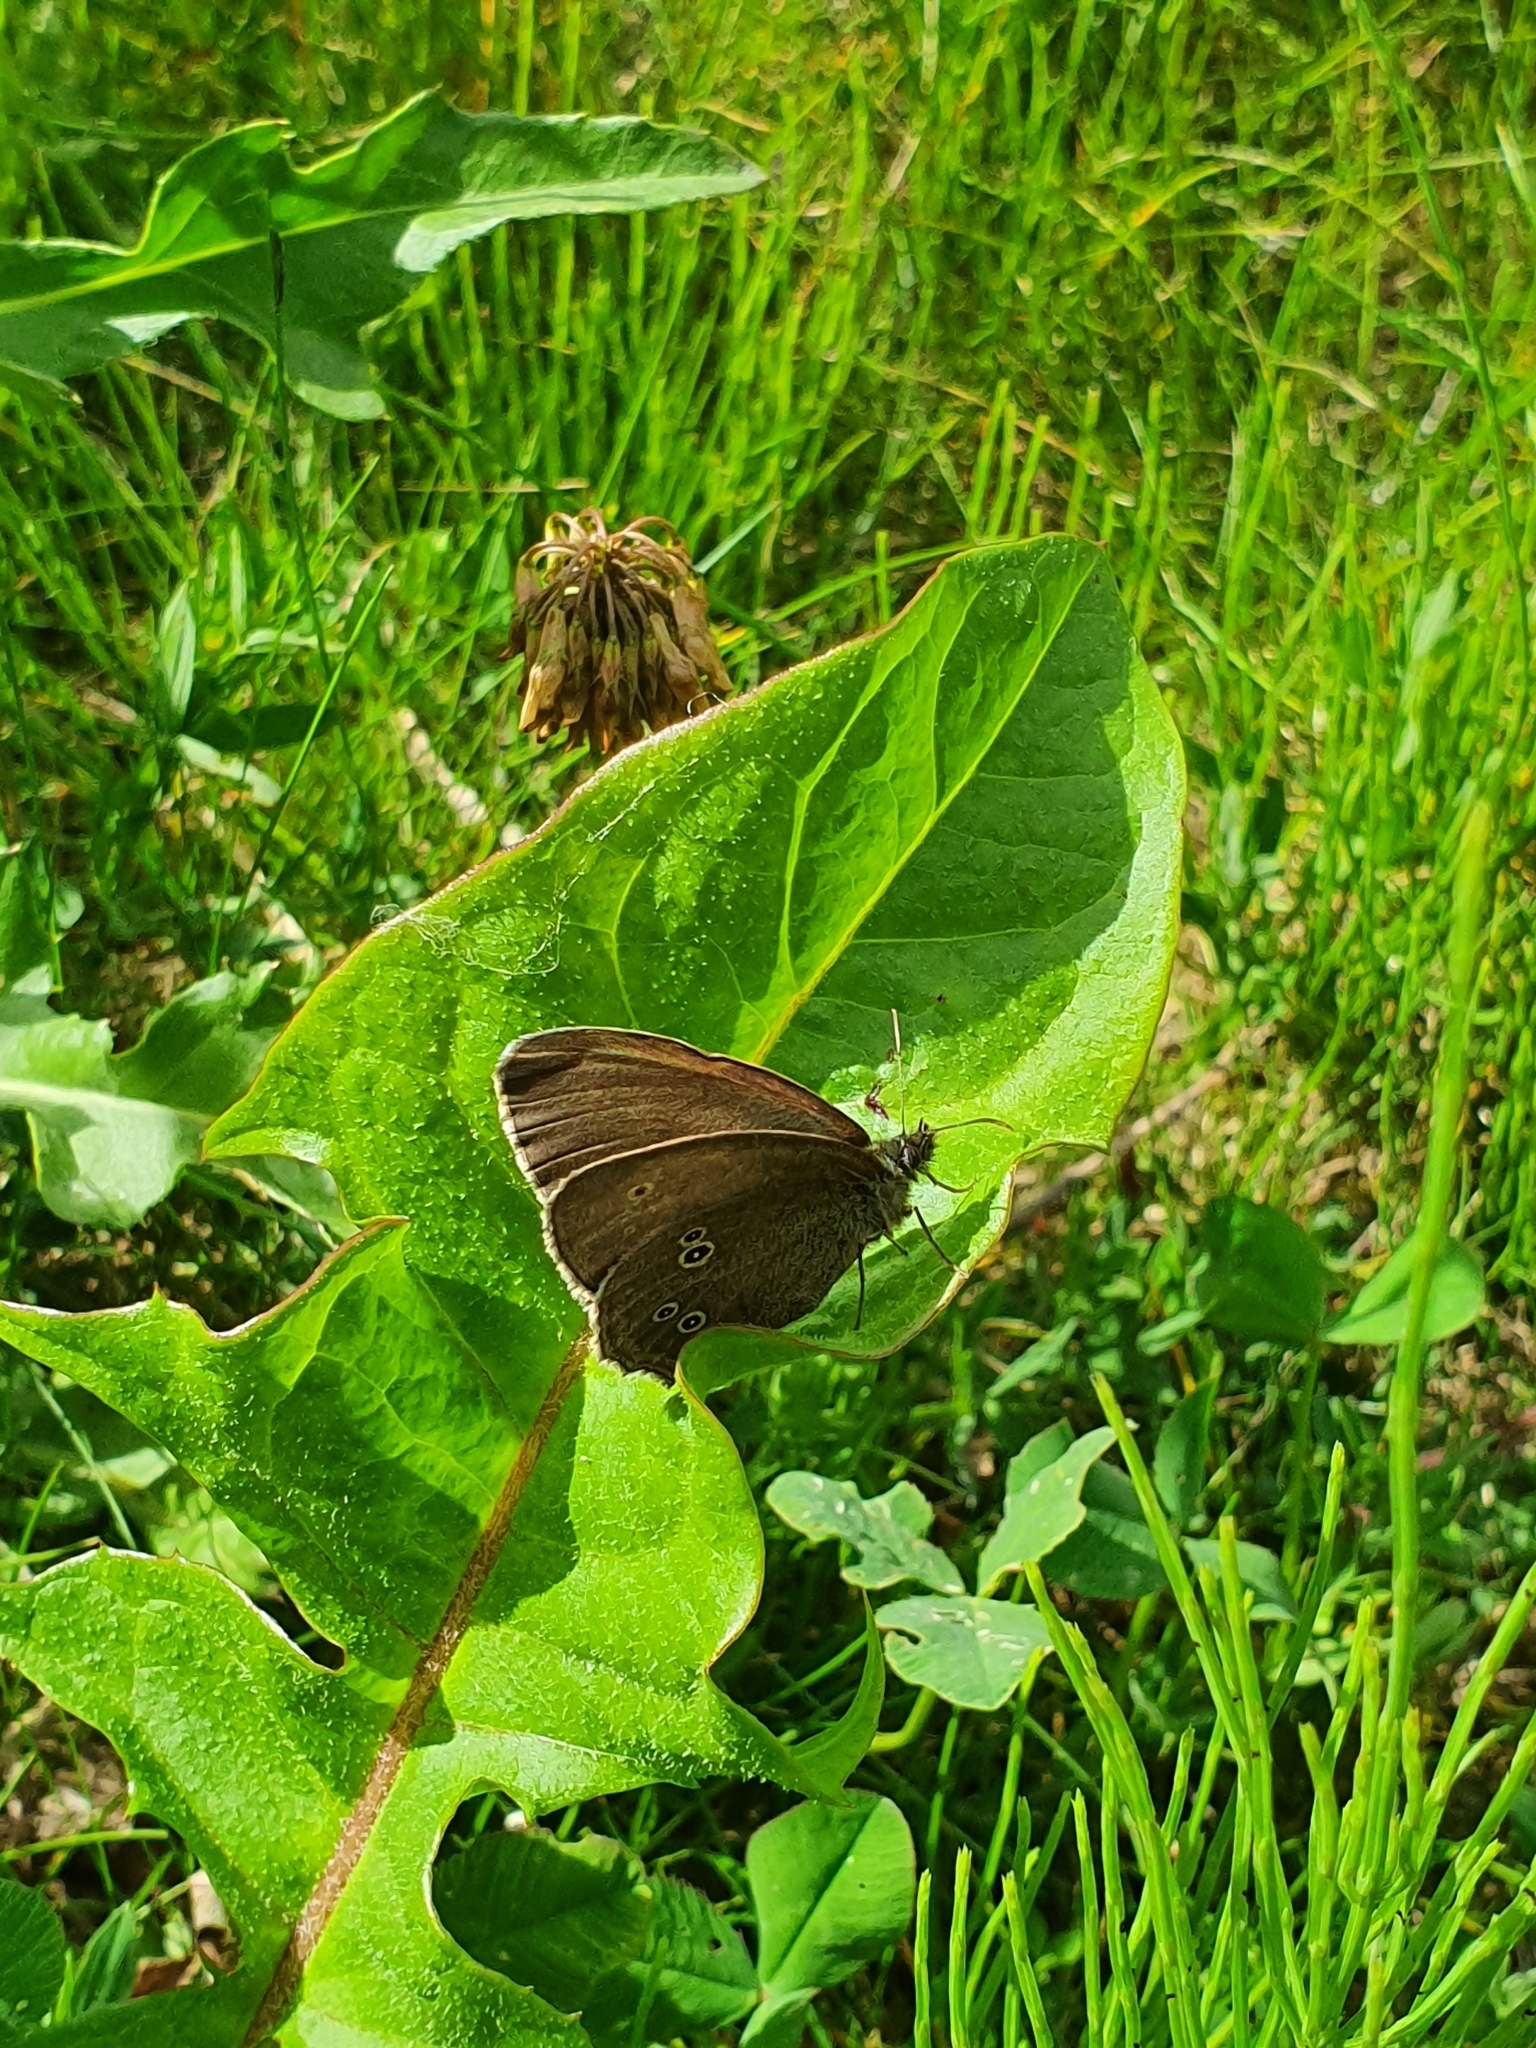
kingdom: Animalia
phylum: Arthropoda
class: Insecta
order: Lepidoptera
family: Nymphalidae
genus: Aphantopus
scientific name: Aphantopus hyperantus
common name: Ringlet
